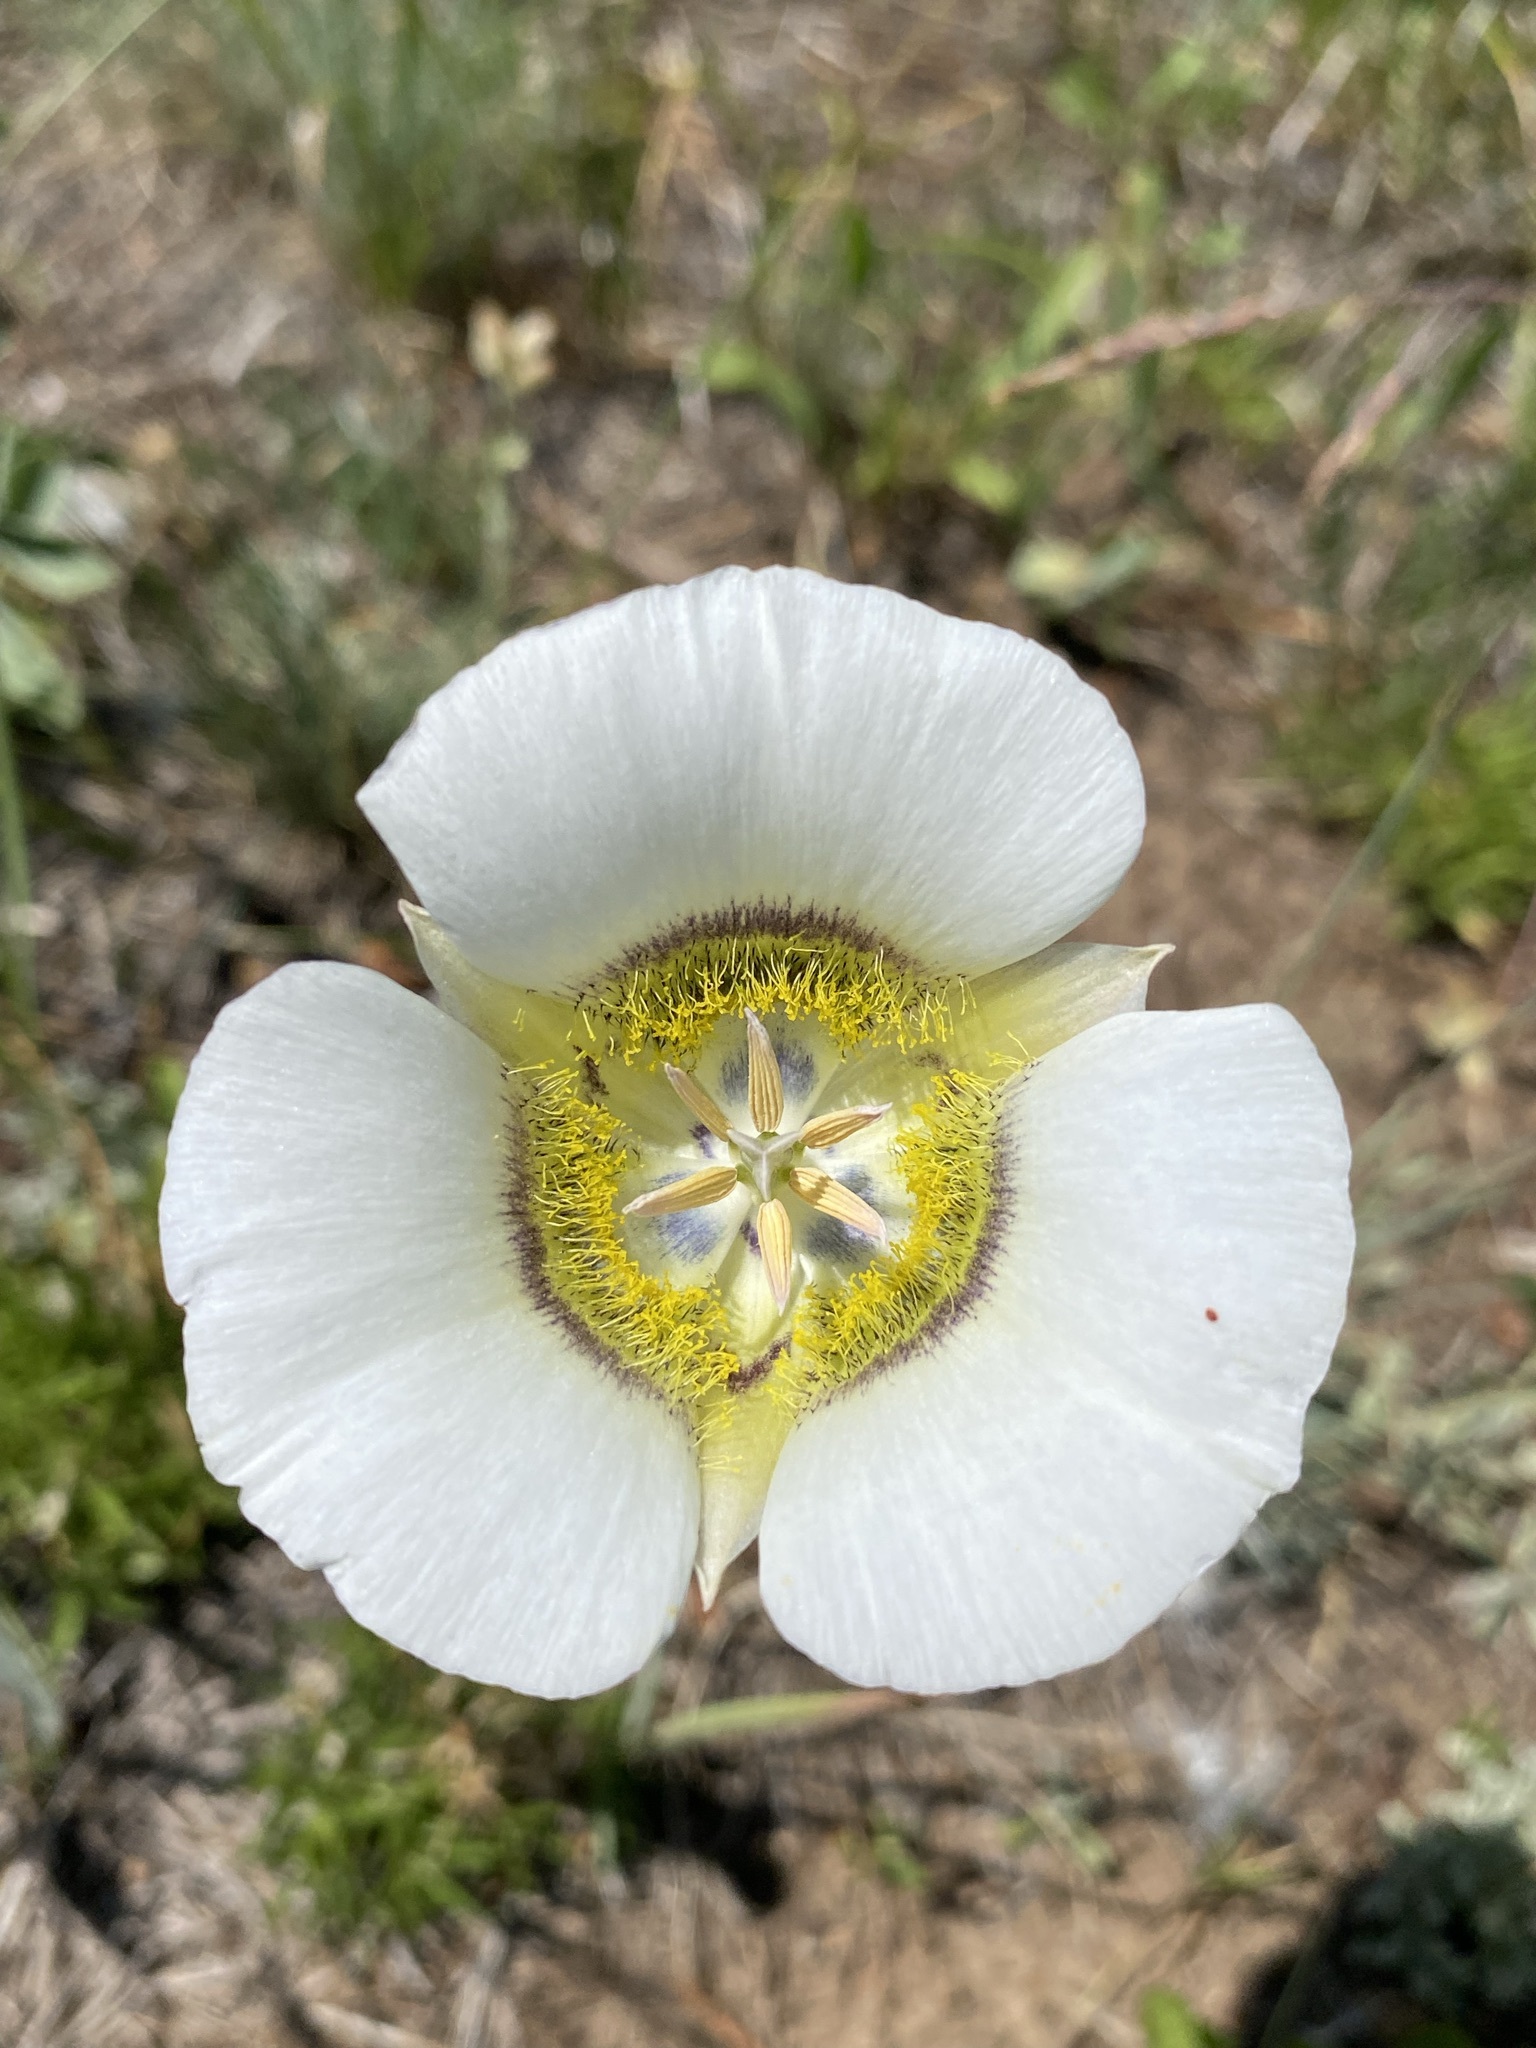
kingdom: Plantae
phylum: Tracheophyta
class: Liliopsida
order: Liliales
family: Liliaceae
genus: Calochortus
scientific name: Calochortus gunnisonii
